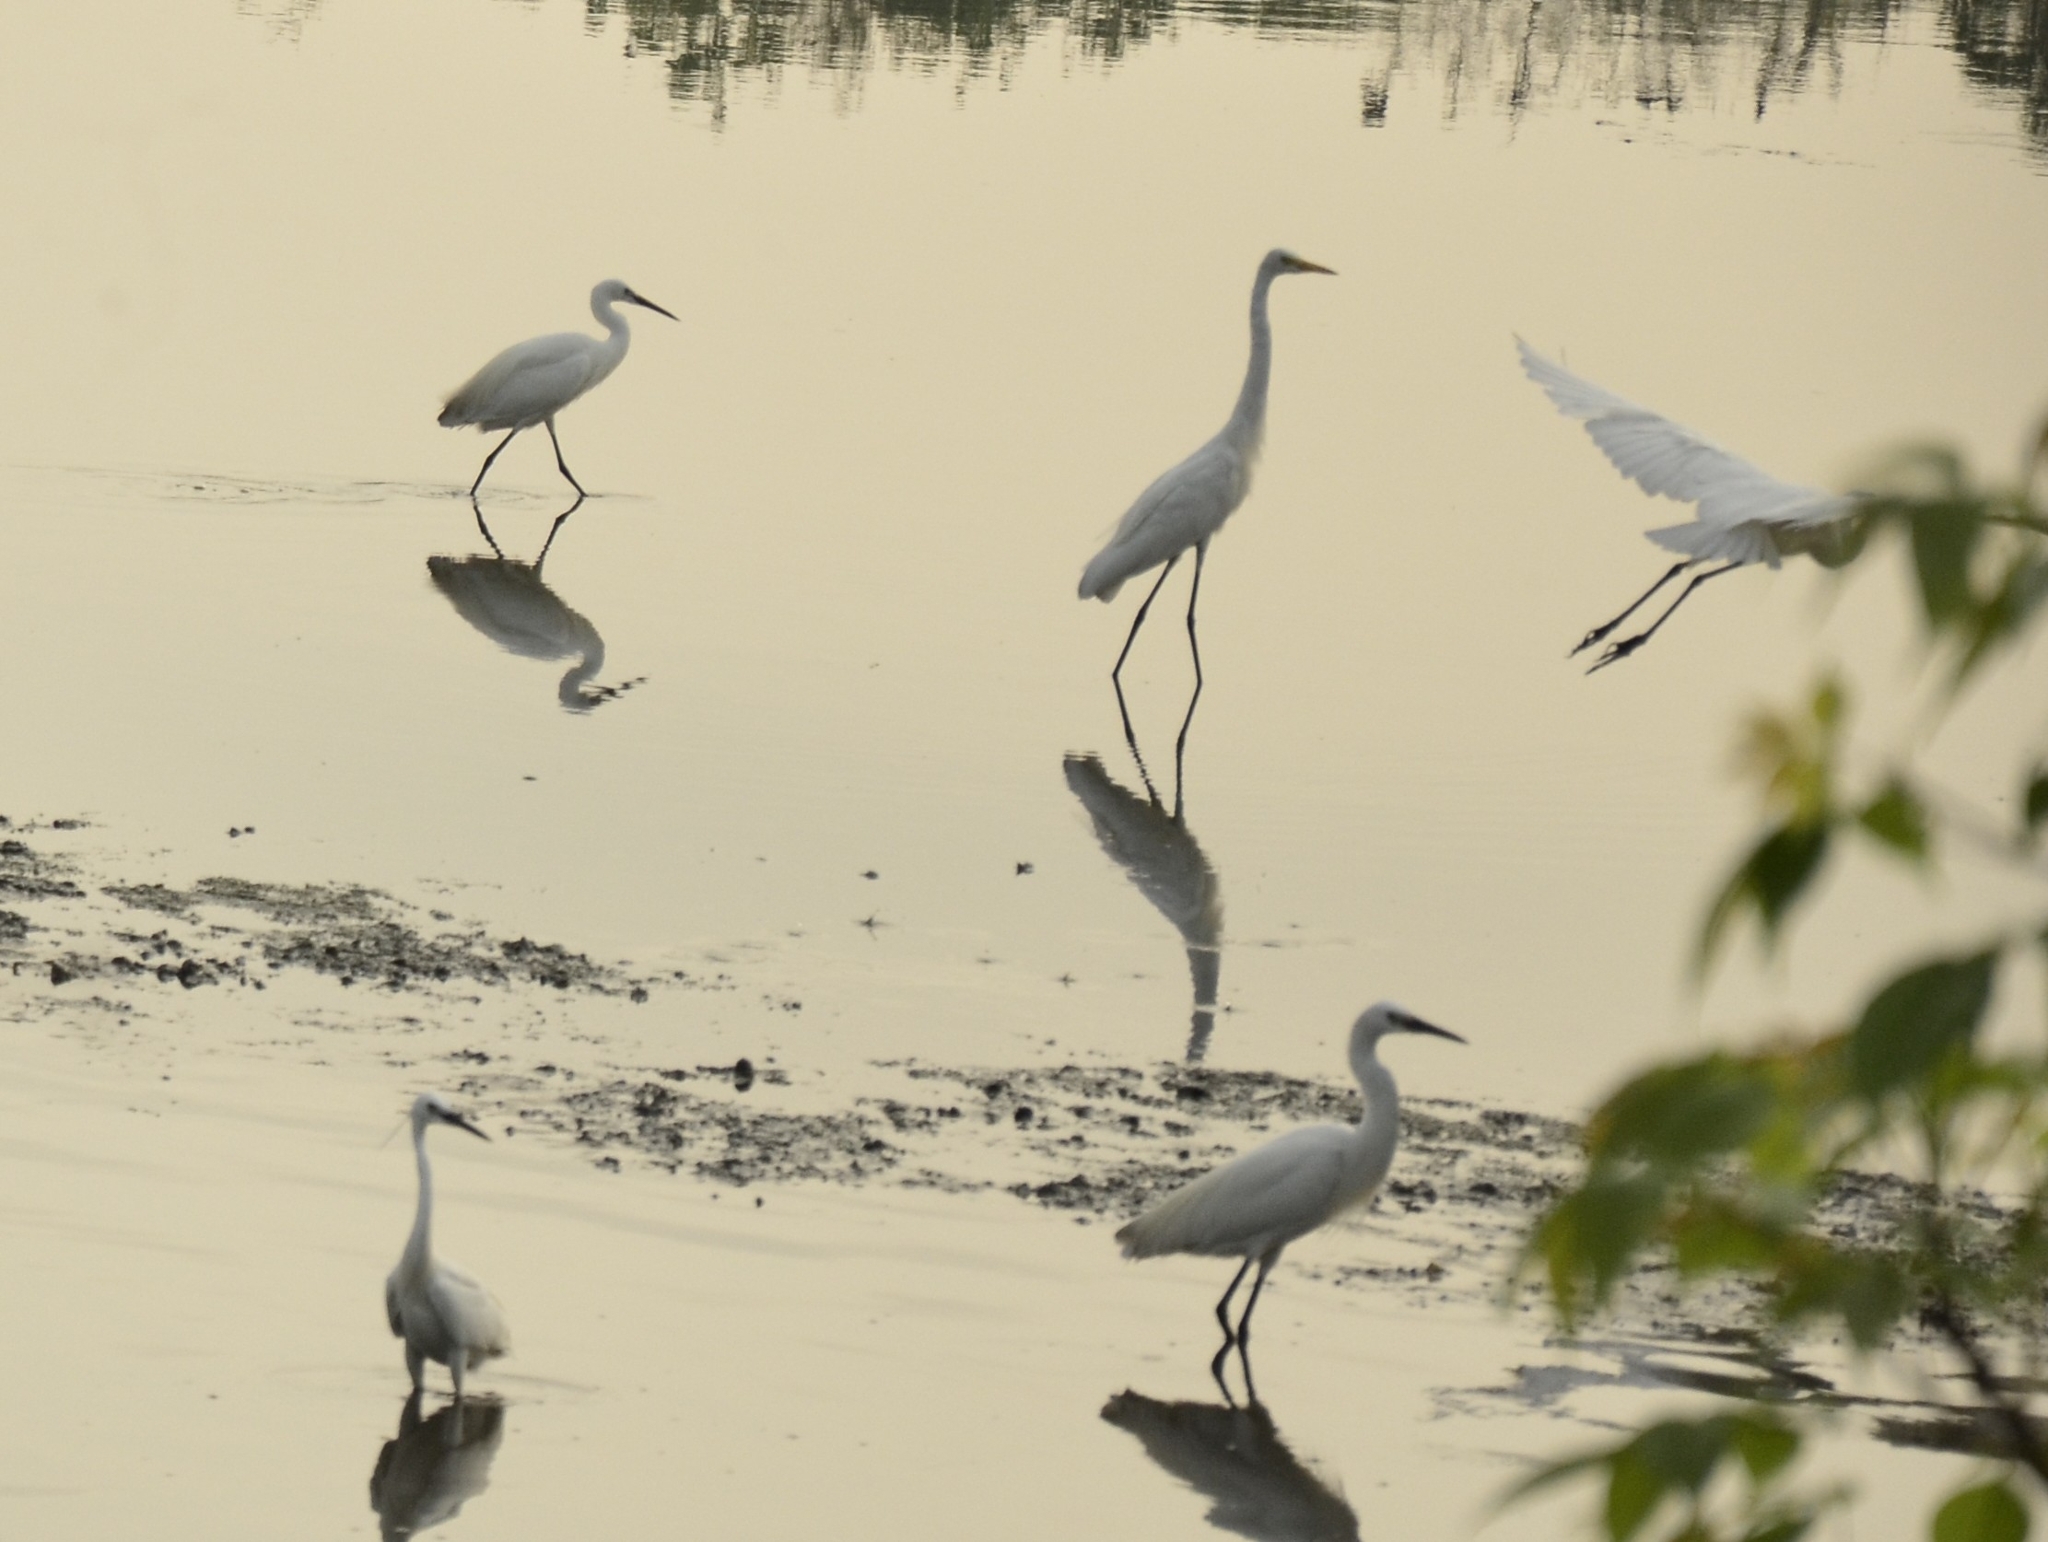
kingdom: Animalia
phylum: Chordata
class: Aves
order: Pelecaniformes
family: Ardeidae
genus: Egretta
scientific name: Egretta garzetta
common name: Little egret
